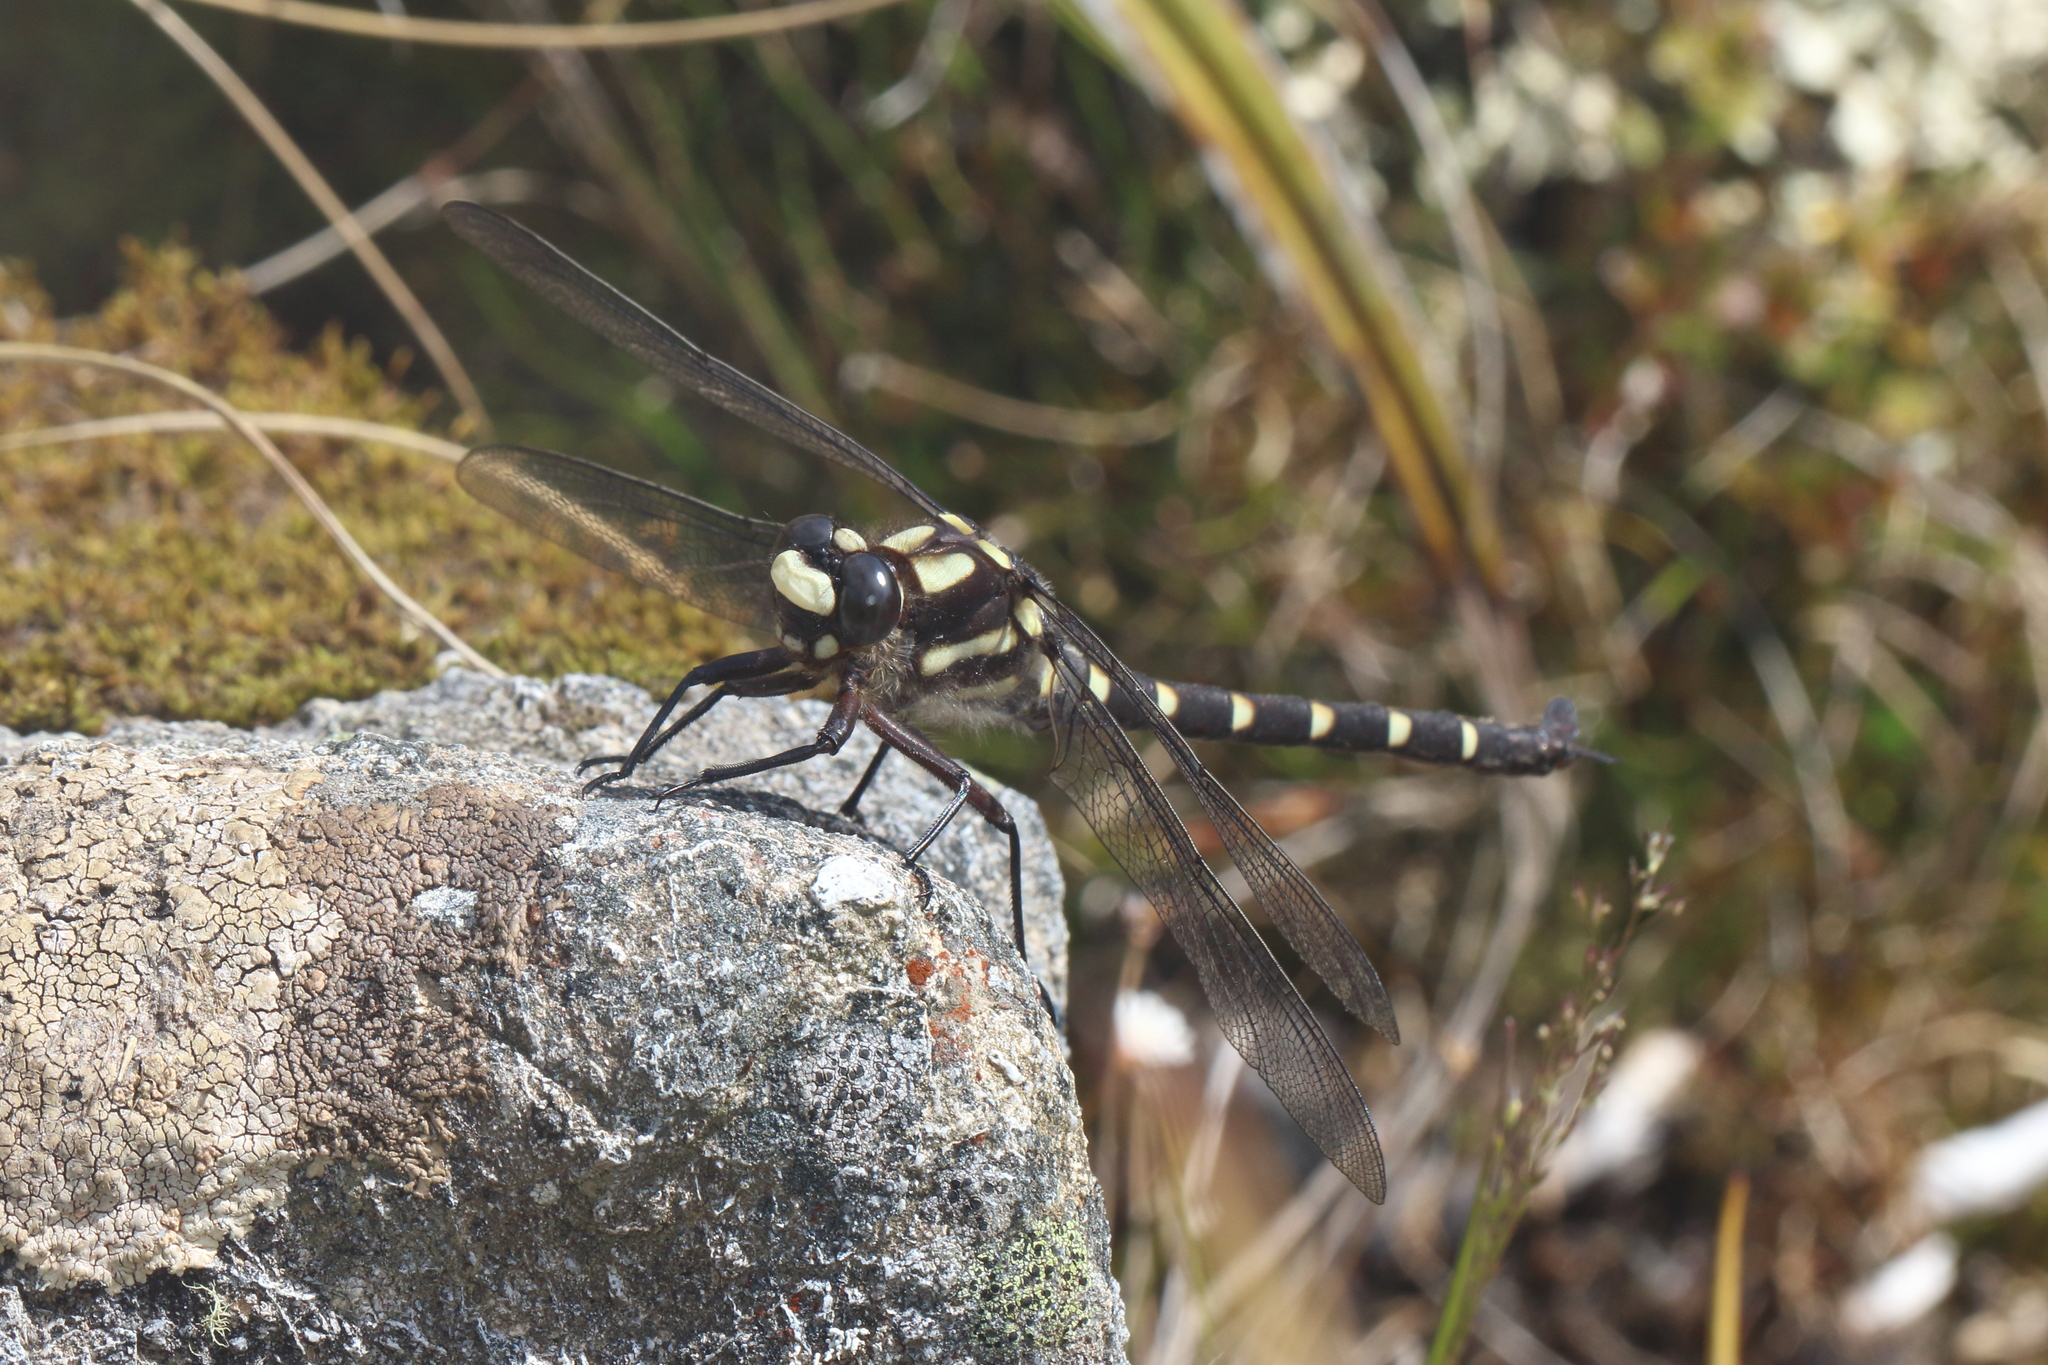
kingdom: Animalia
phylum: Arthropoda
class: Insecta
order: Odonata
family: Petaluridae
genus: Uropetala
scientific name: Uropetala chiltoni
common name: Mountain giant dragonfly
